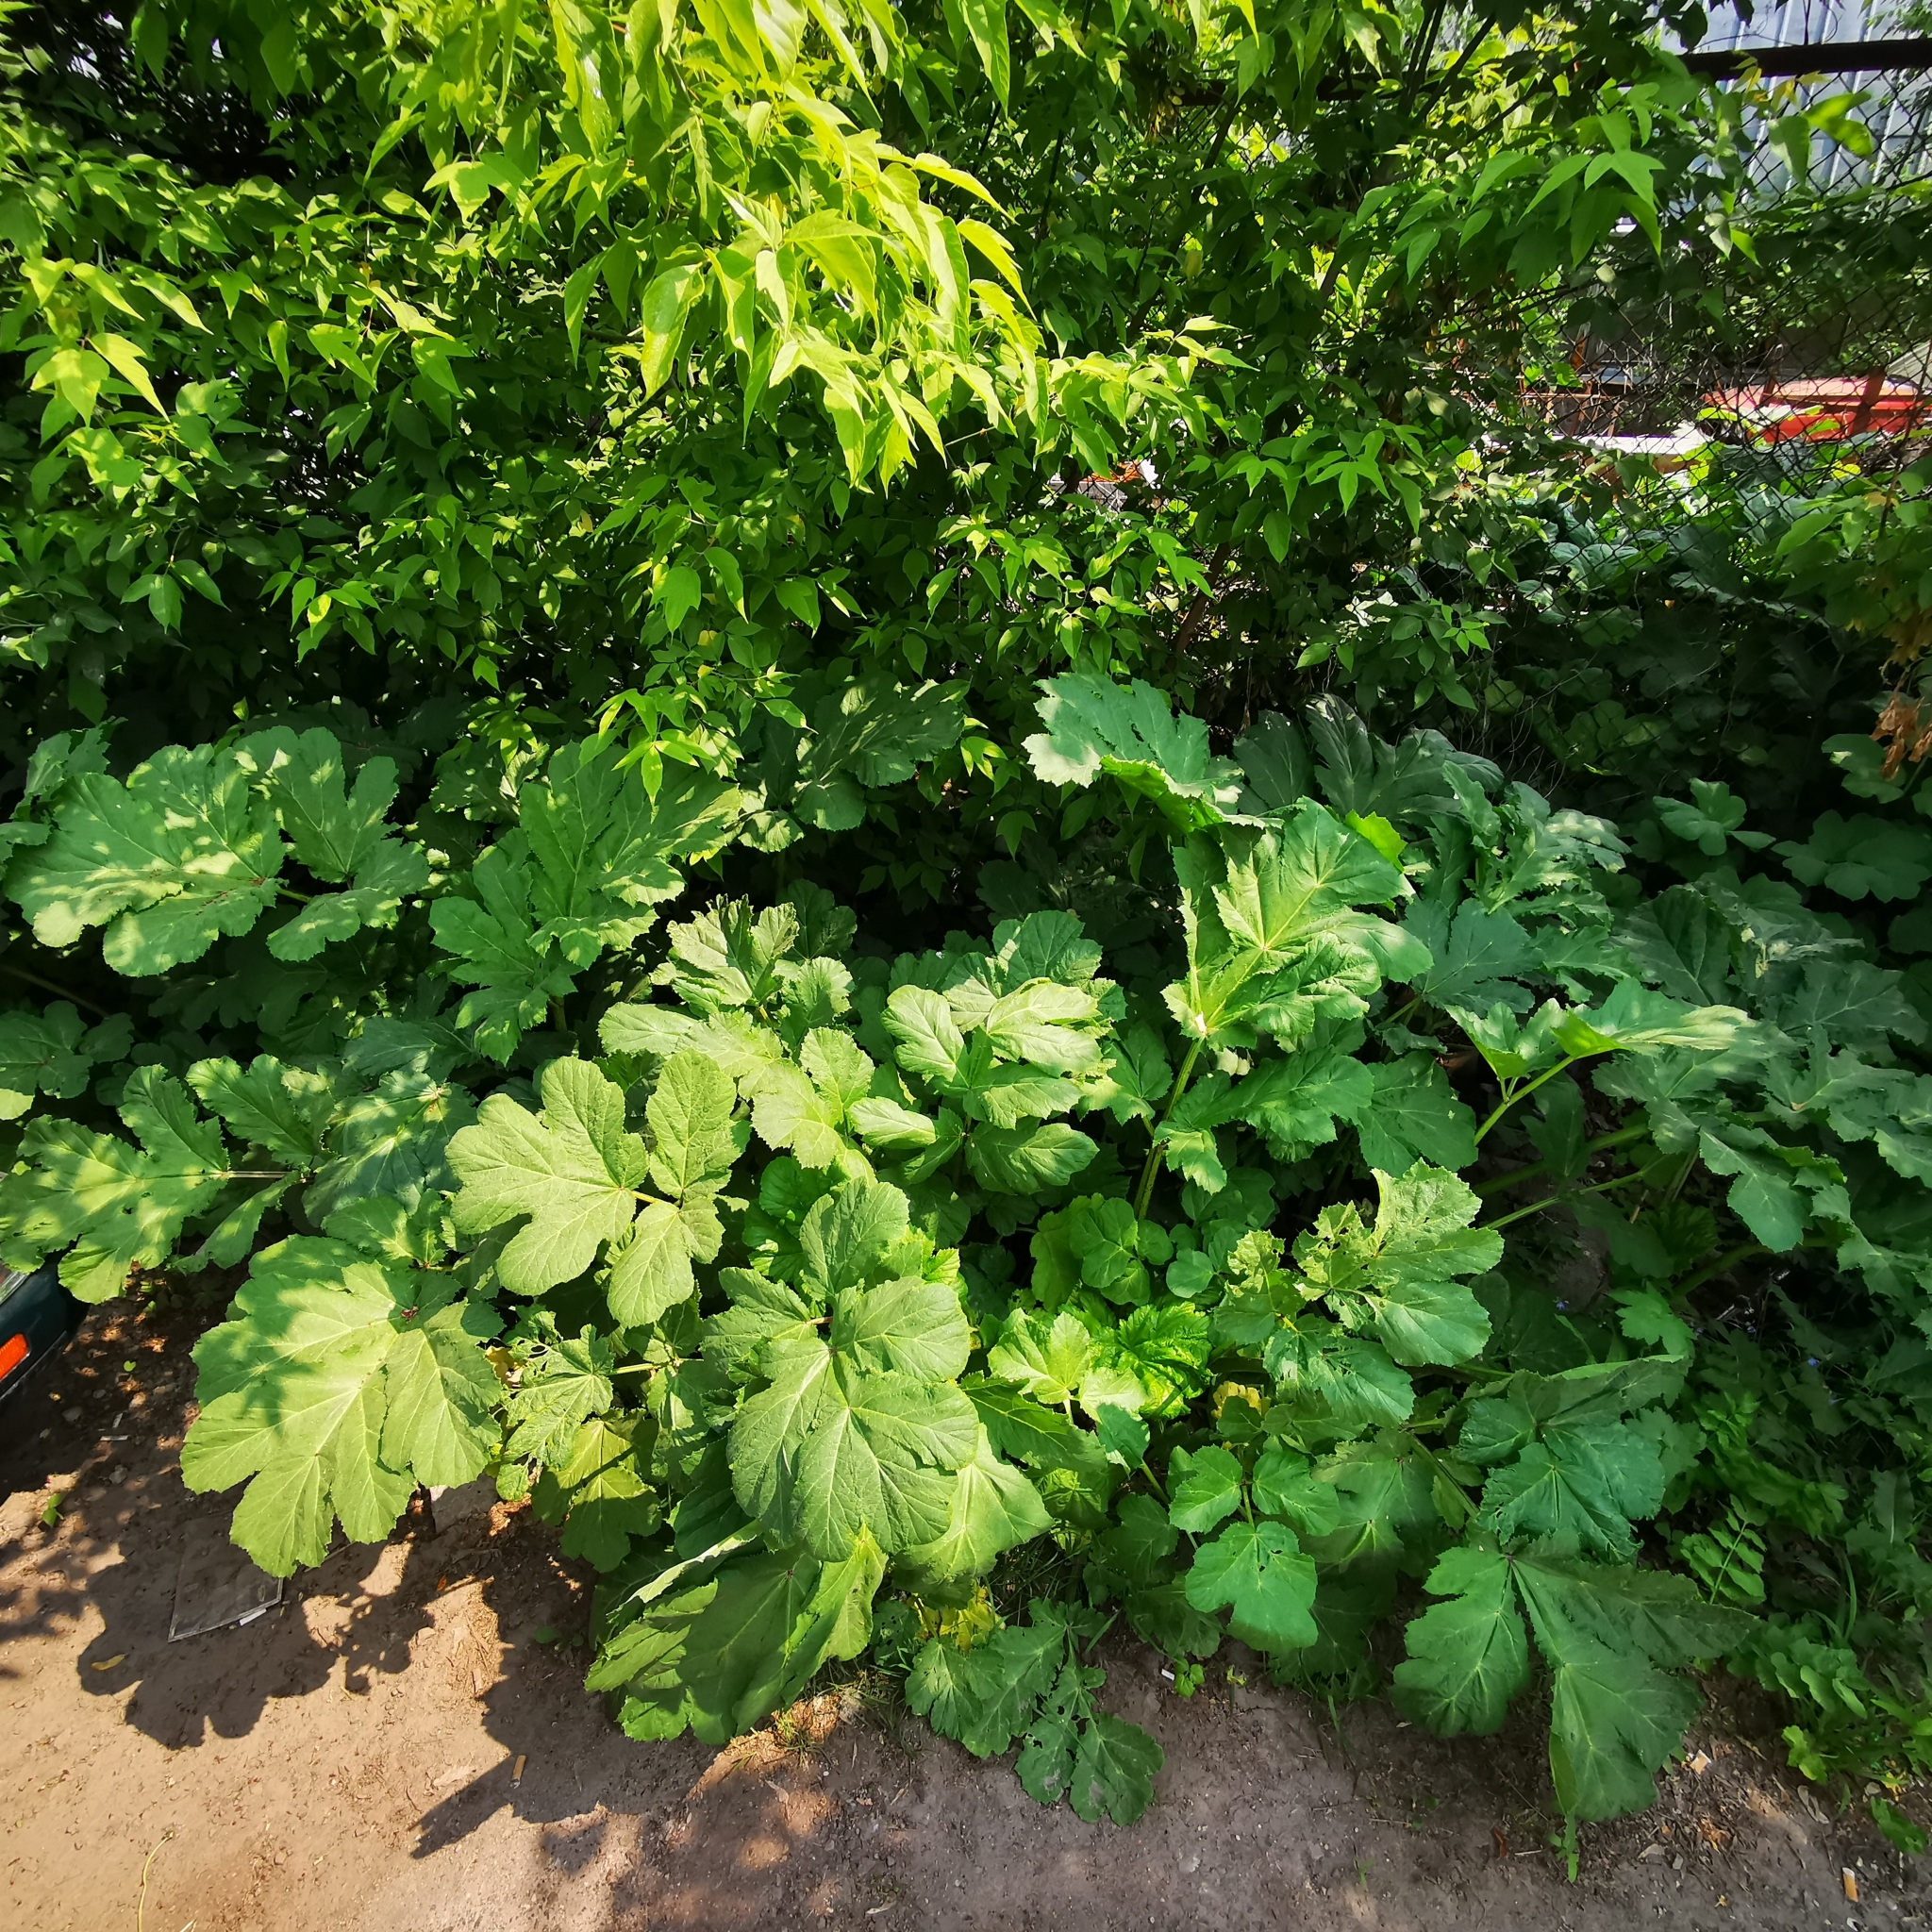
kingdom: Plantae
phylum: Tracheophyta
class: Magnoliopsida
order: Apiales
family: Apiaceae
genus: Heracleum
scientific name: Heracleum sosnowskyi
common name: Sosnowsky's hogweed
